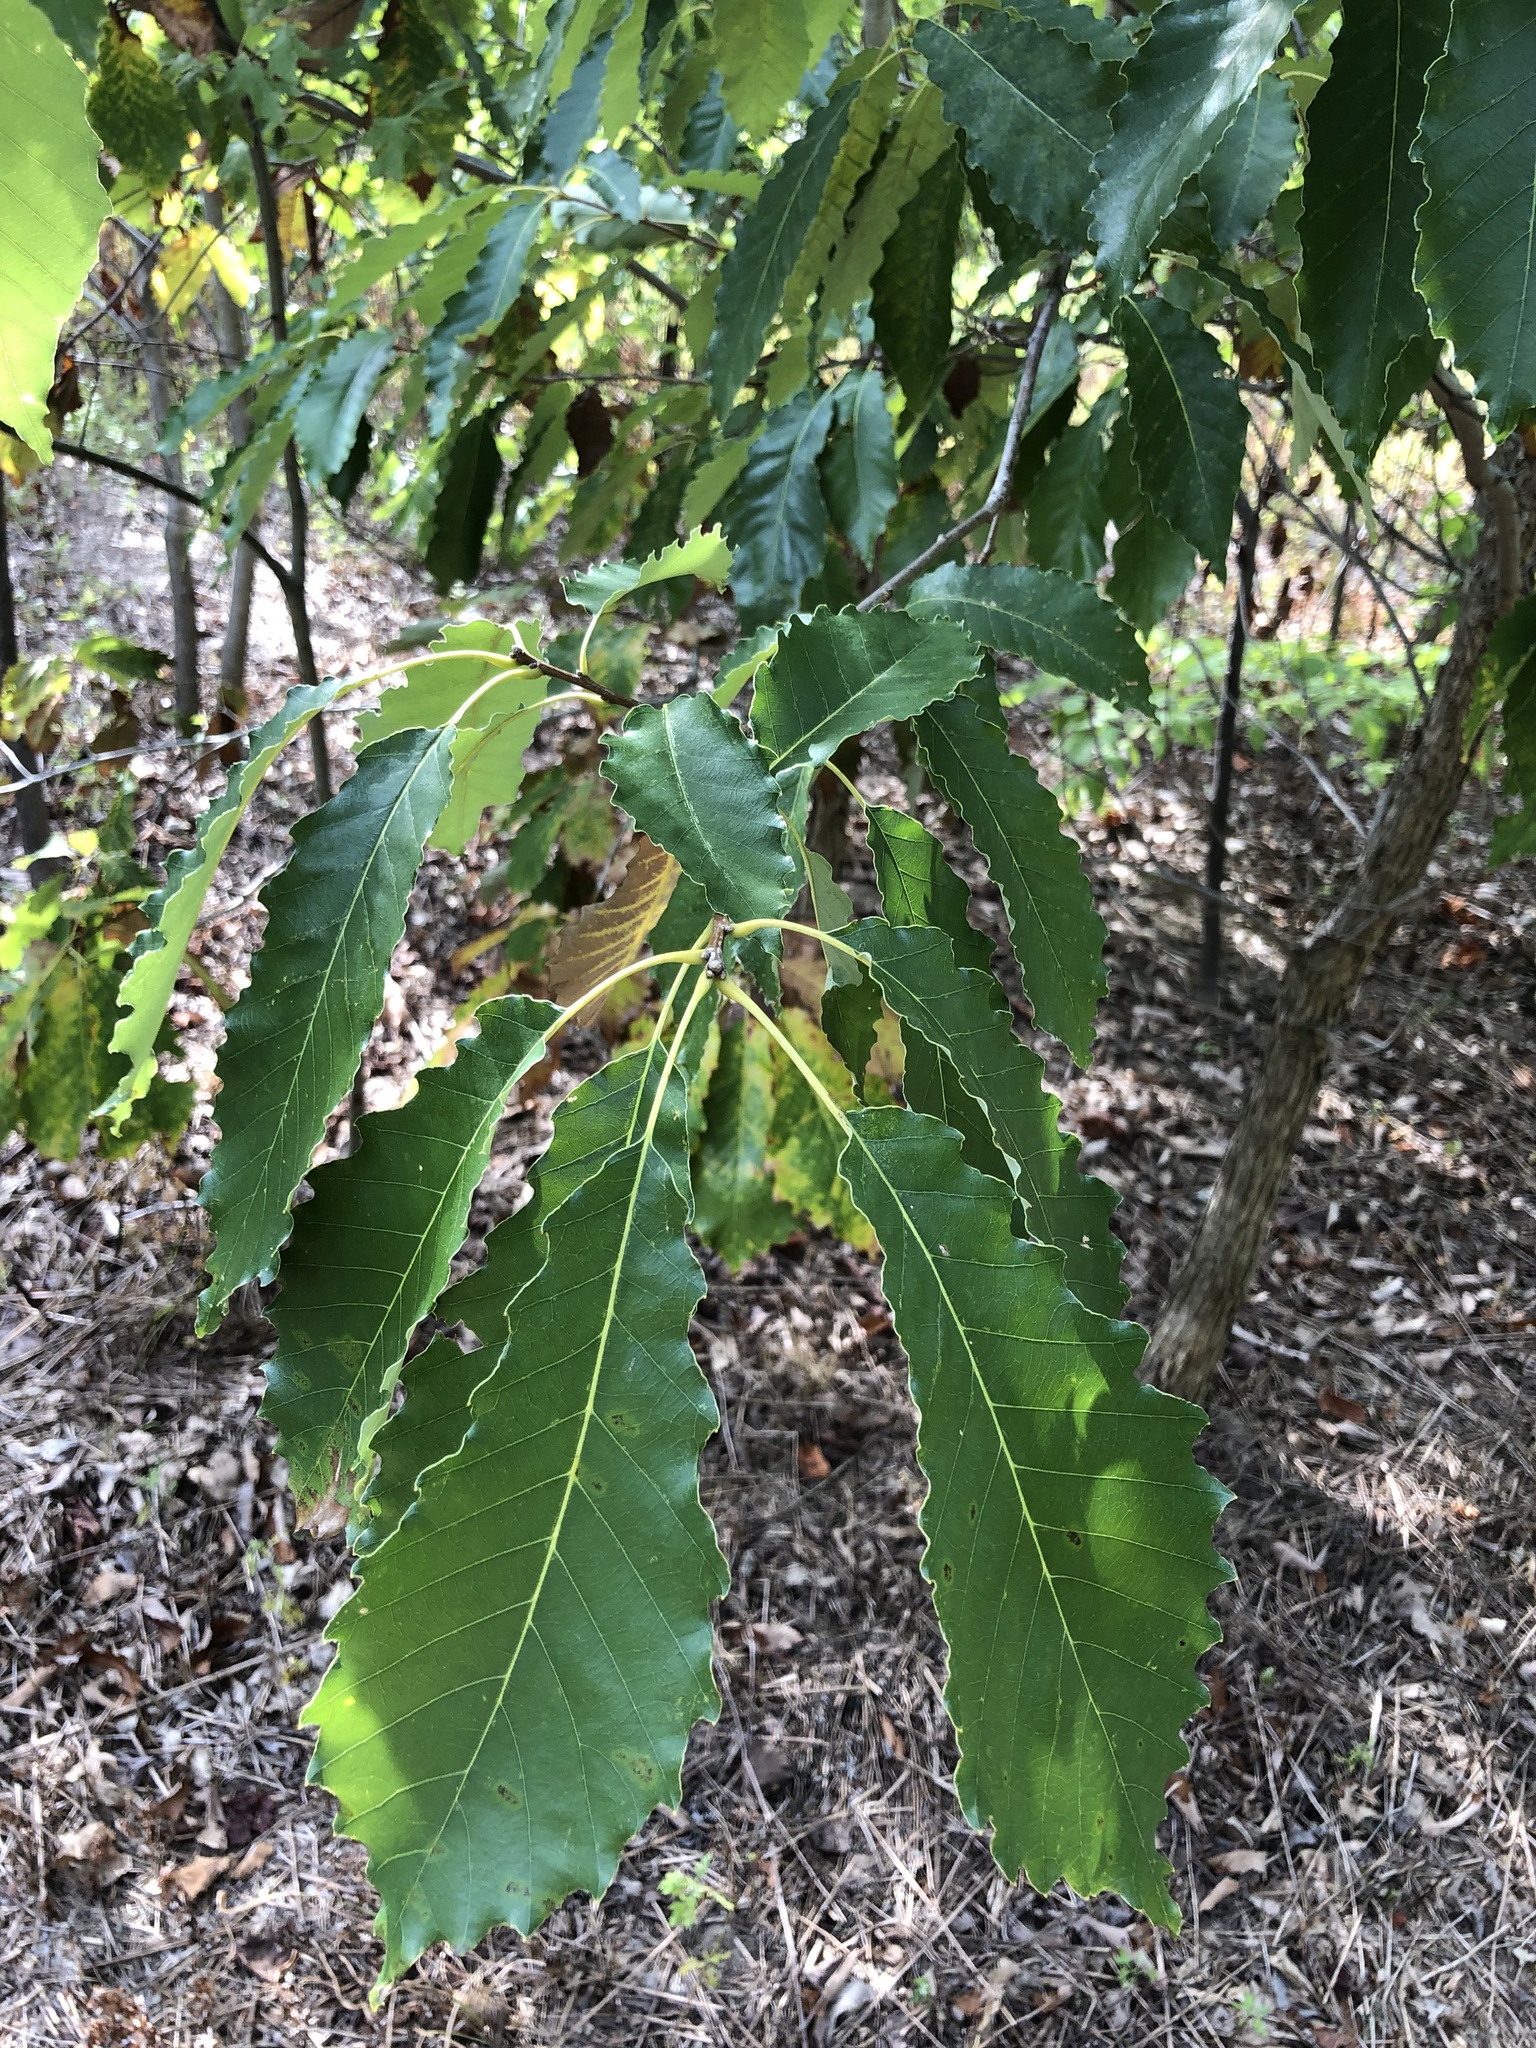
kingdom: Plantae
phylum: Tracheophyta
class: Magnoliopsida
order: Fagales
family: Fagaceae
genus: Quercus
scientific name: Quercus muehlenbergii
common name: Chinkapin oak
